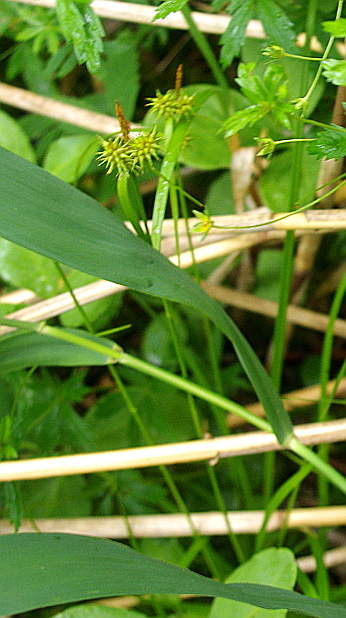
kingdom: Plantae
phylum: Tracheophyta
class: Liliopsida
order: Poales
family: Cyperaceae
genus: Carex
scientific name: Carex flava
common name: Large yellow-sedge
